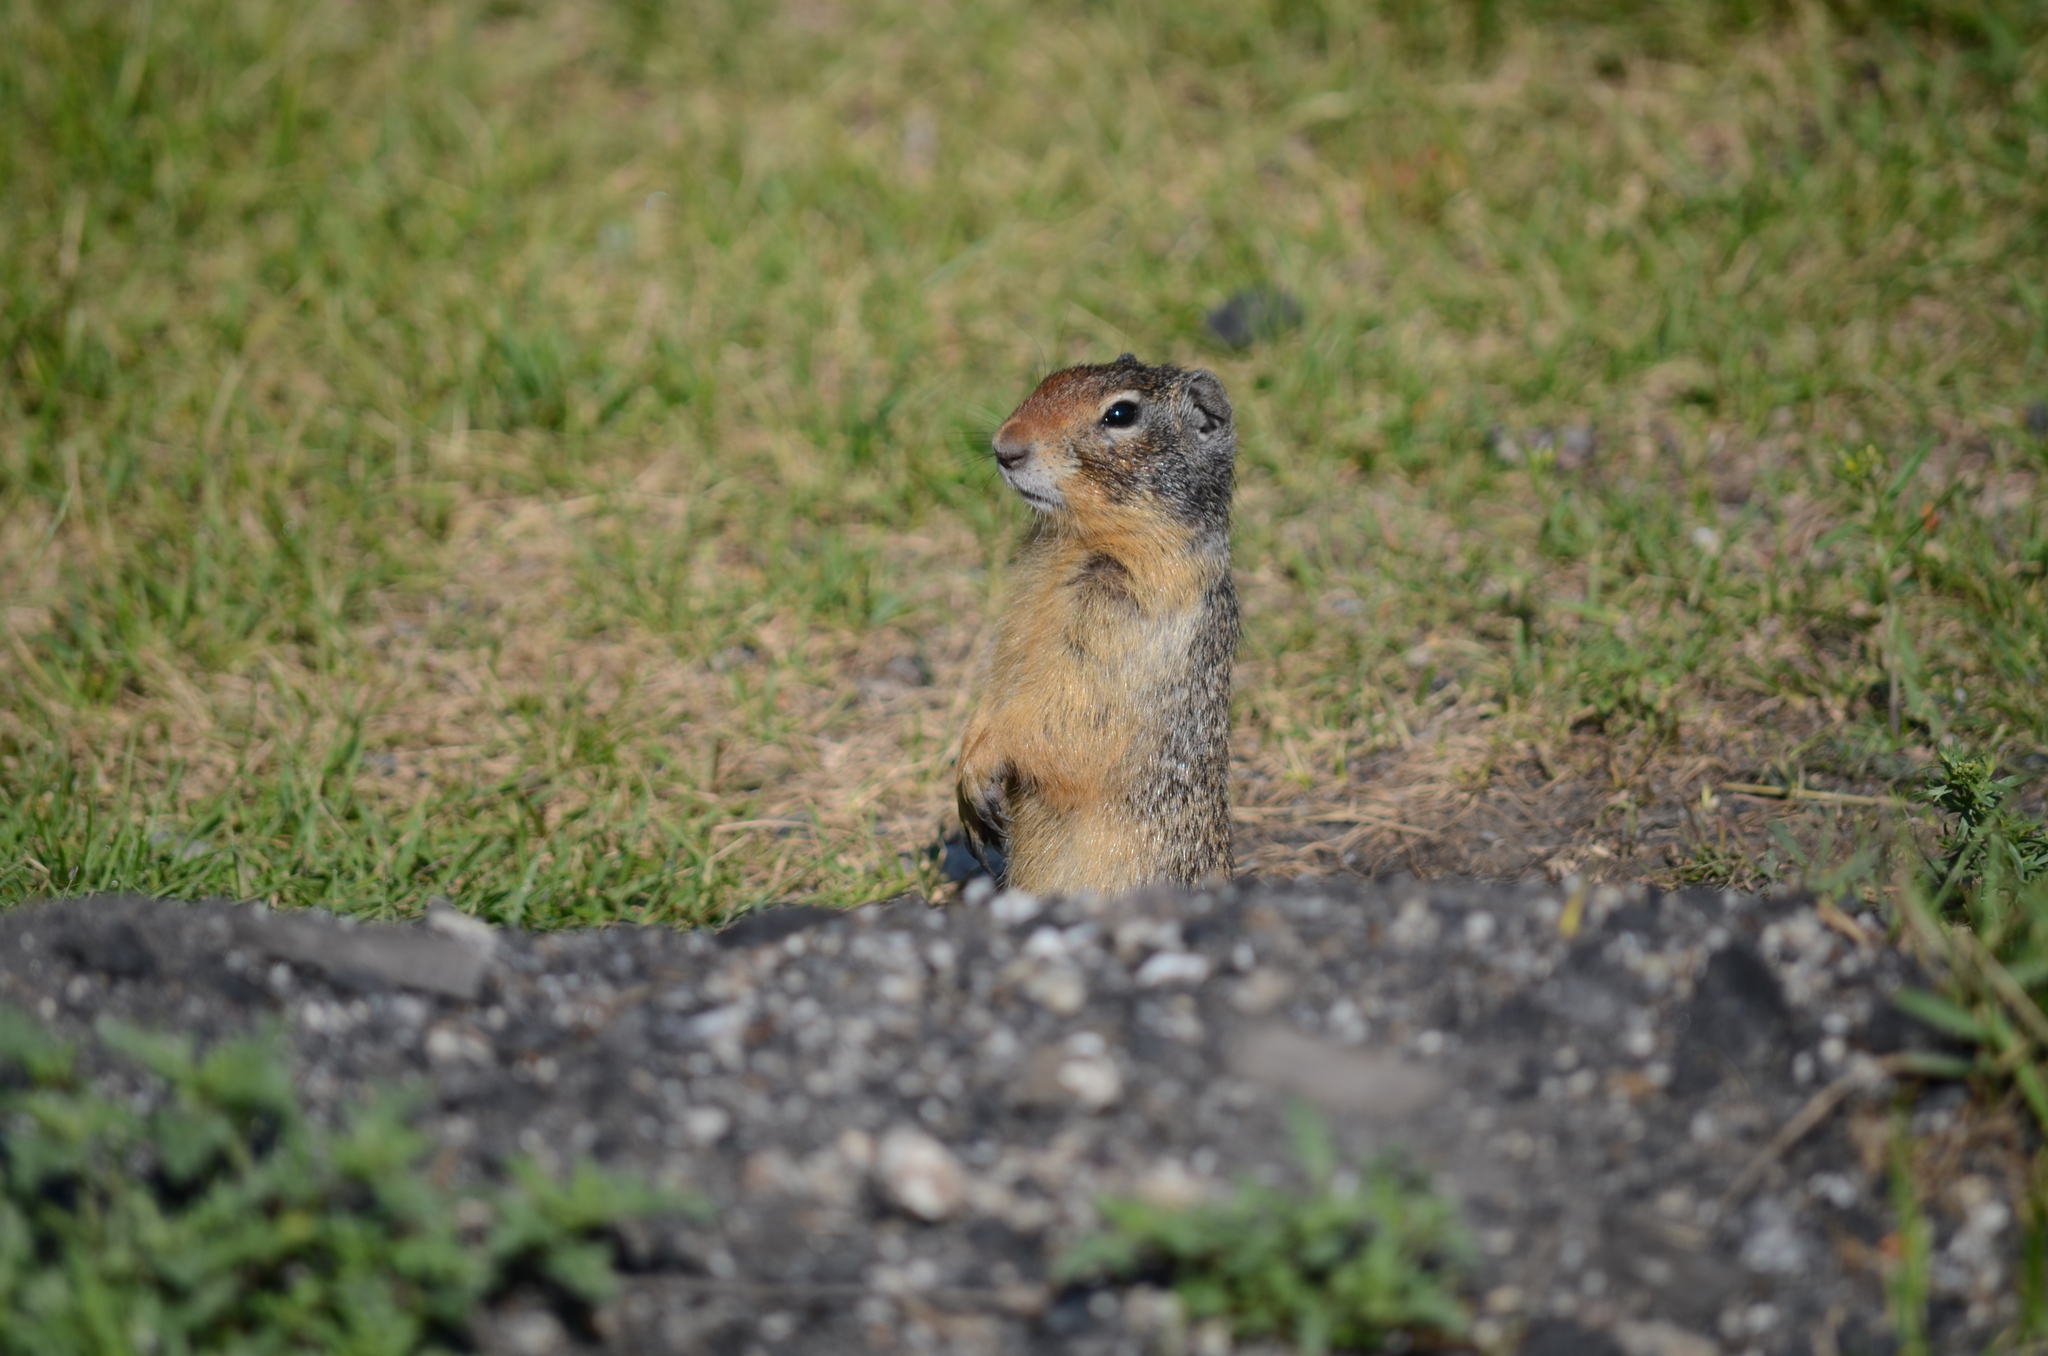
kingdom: Animalia
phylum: Chordata
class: Mammalia
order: Rodentia
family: Sciuridae
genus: Urocitellus
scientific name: Urocitellus columbianus
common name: Columbian ground squirrel
